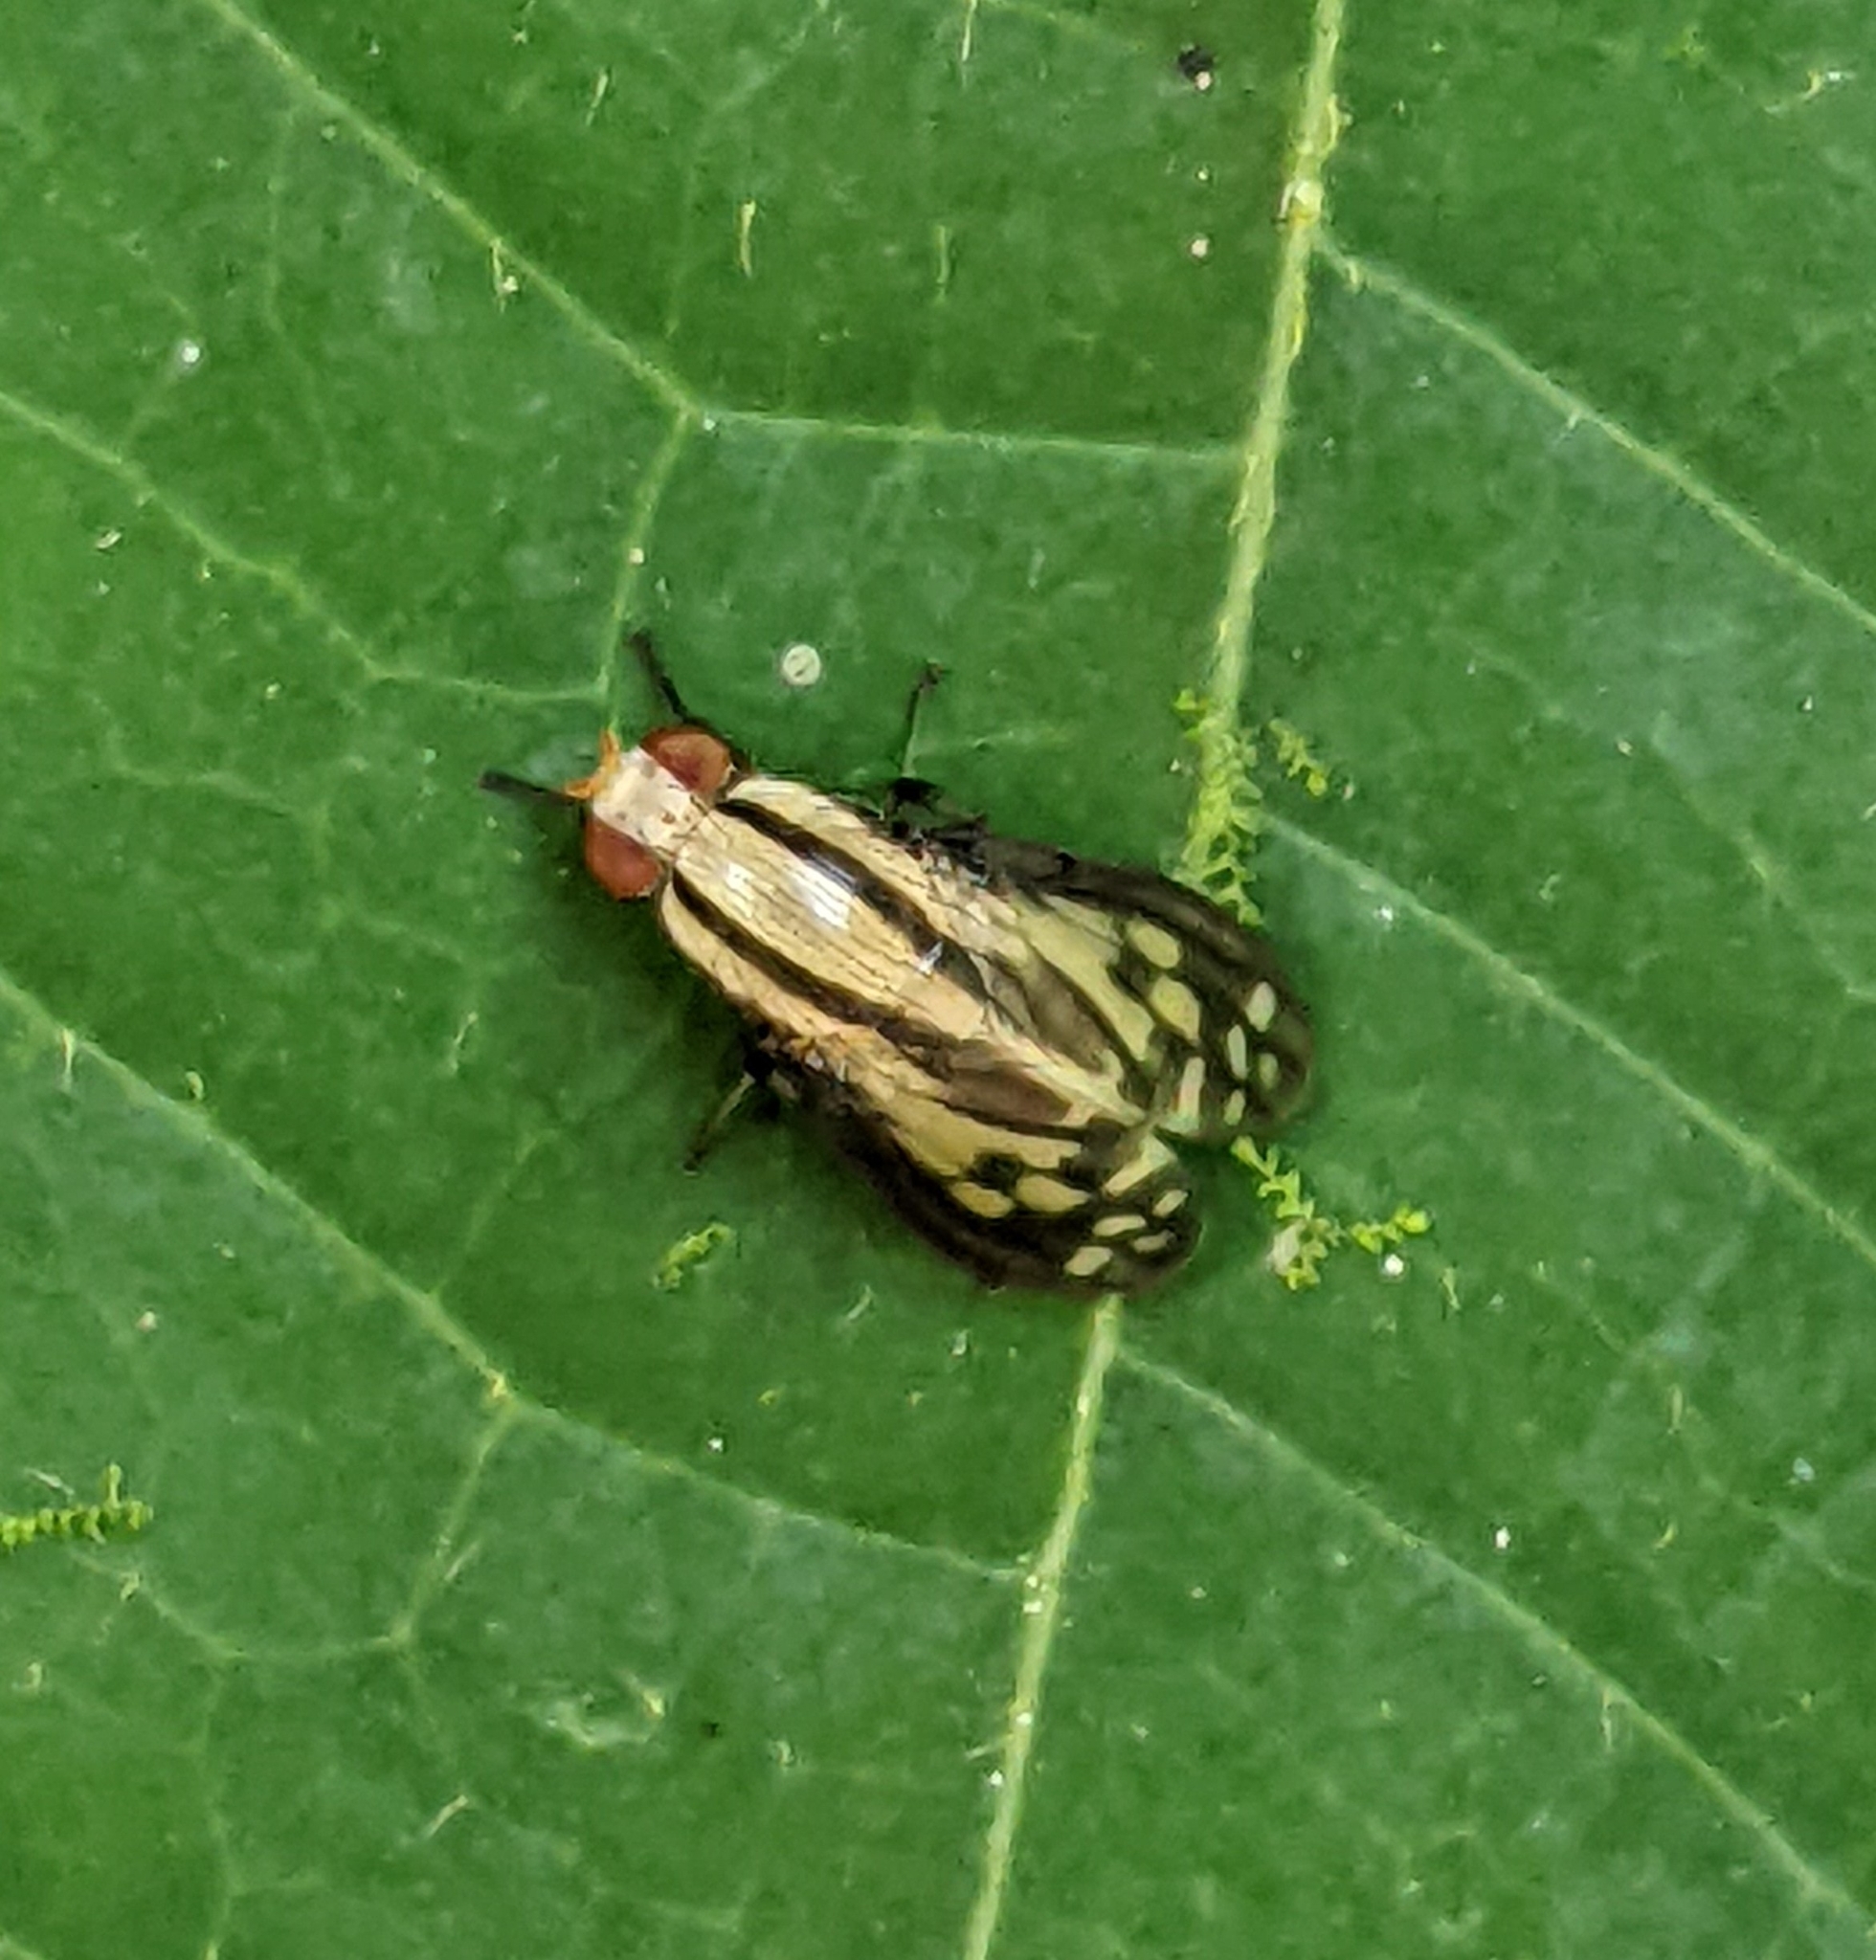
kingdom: Animalia
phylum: Arthropoda
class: Insecta
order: Diptera
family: Lauxaniidae
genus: Setulina
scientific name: Setulina geminata
